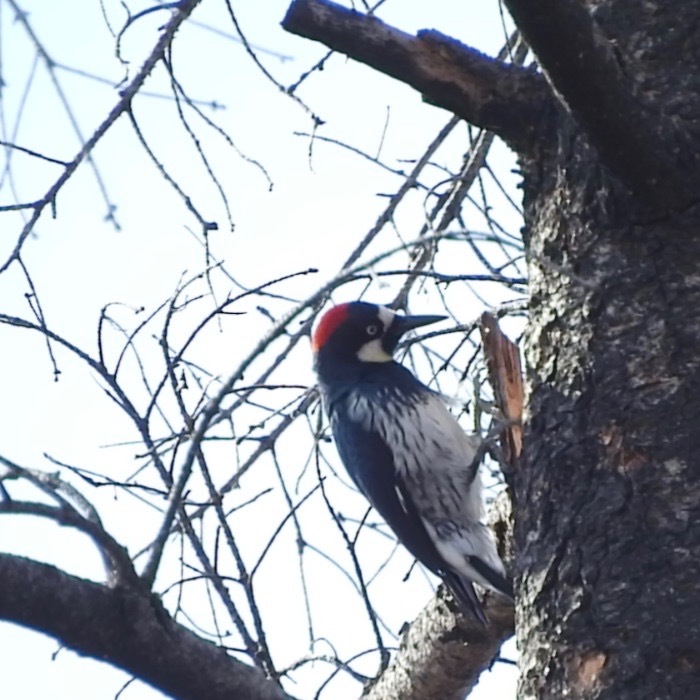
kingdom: Animalia
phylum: Chordata
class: Aves
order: Piciformes
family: Picidae
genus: Melanerpes
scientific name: Melanerpes formicivorus
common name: Acorn woodpecker
